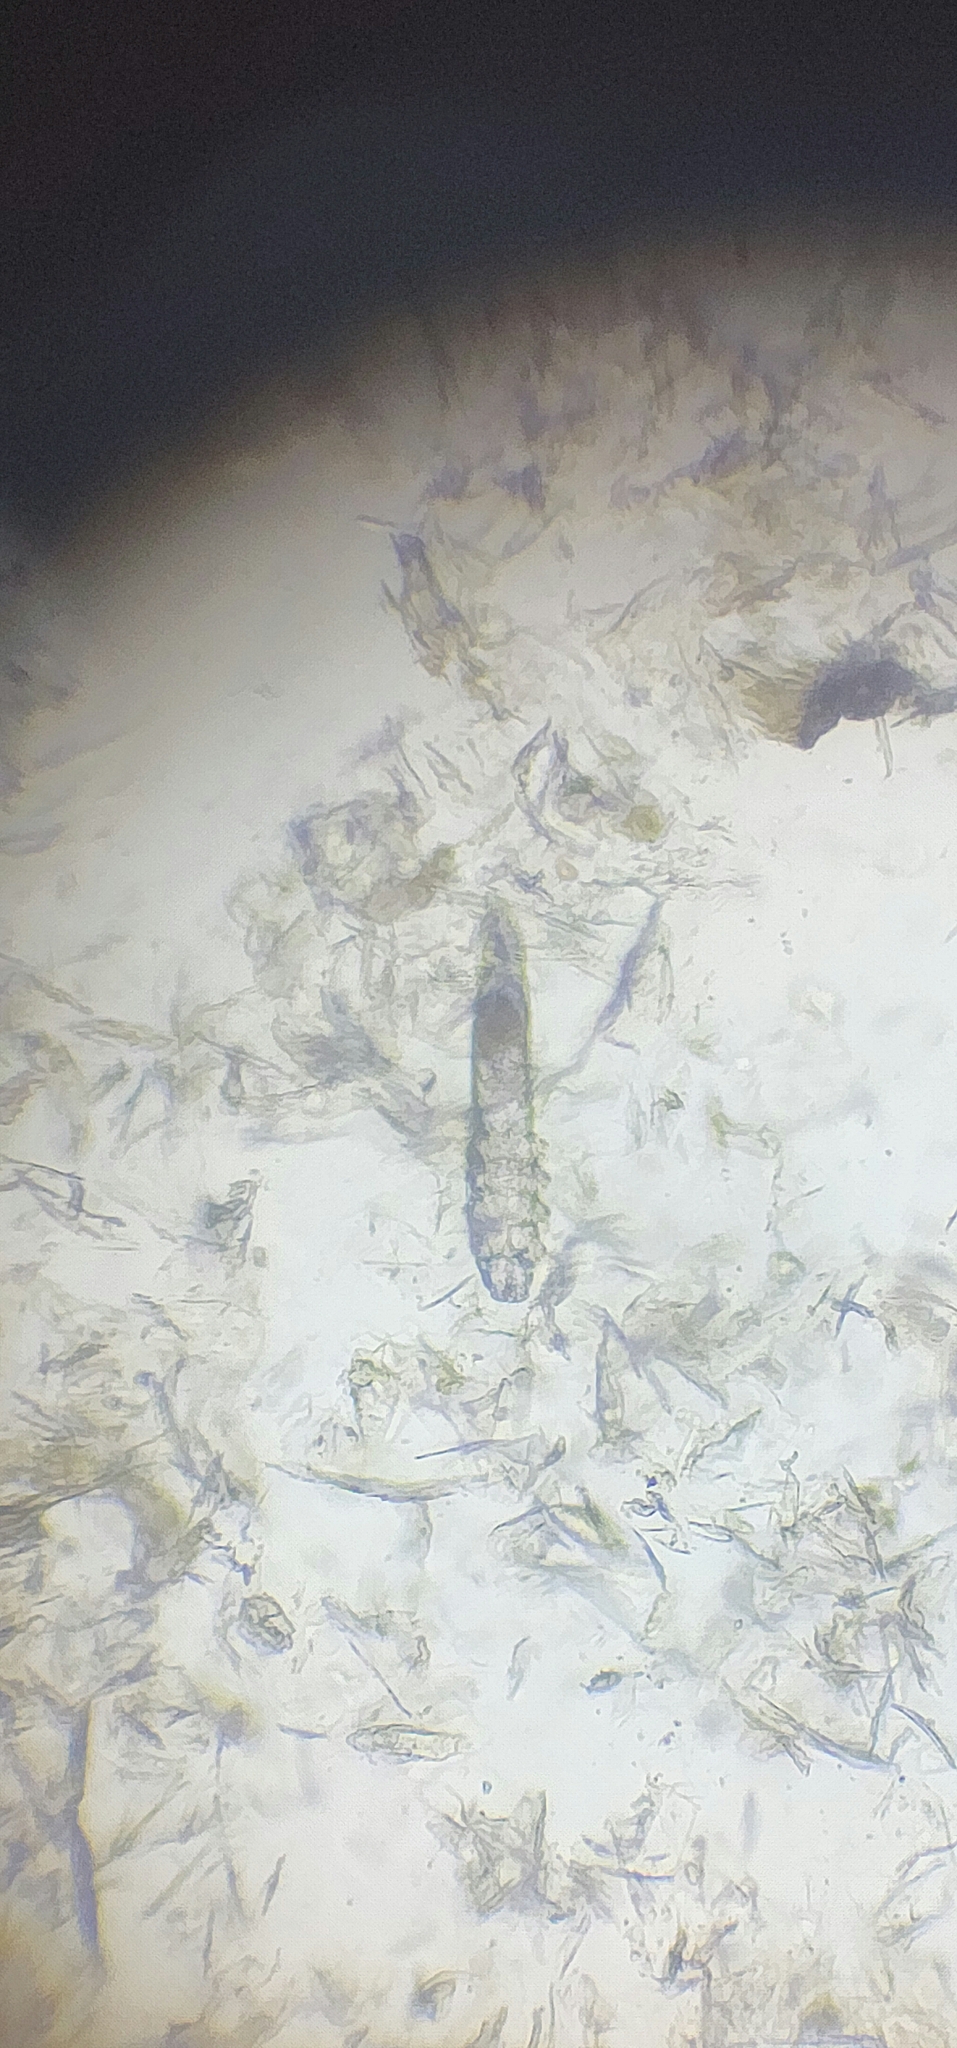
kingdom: Animalia
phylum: Arthropoda
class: Arachnida
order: Trombidiformes
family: Demodecidae
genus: Demodex
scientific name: Demodex canis
